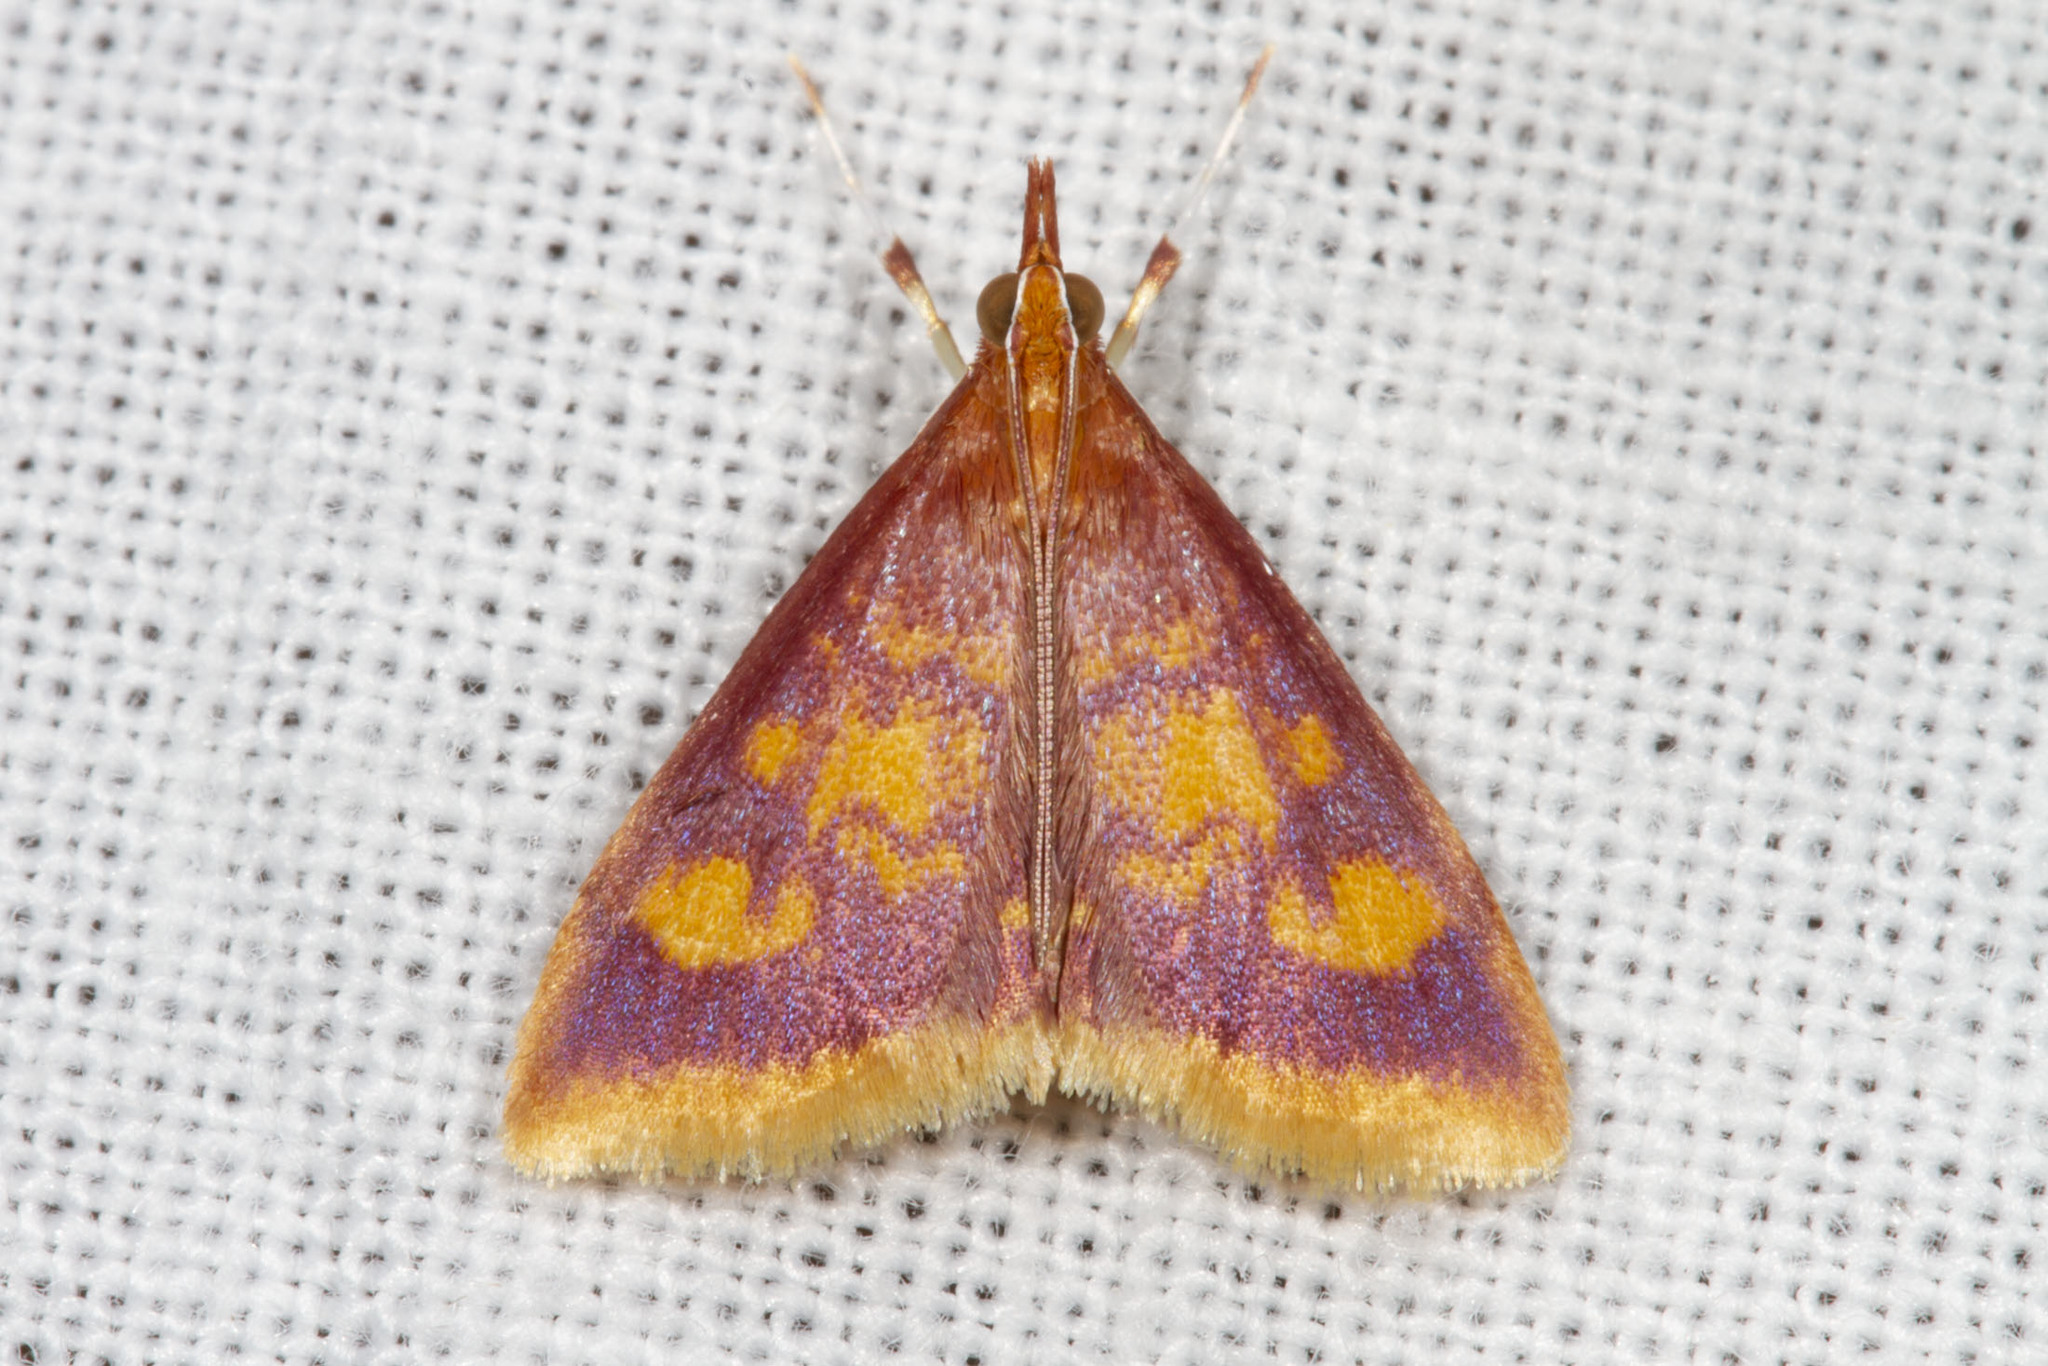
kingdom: Animalia
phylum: Arthropoda
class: Insecta
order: Lepidoptera
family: Crambidae
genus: Pyrausta
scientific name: Pyrausta acrionalis
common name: Mint-loving pyrausta moth
